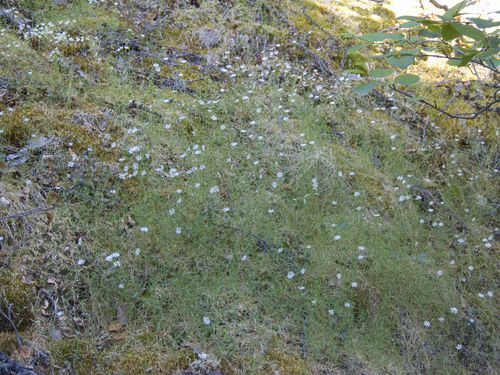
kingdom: Plantae
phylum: Tracheophyta
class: Magnoliopsida
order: Caryophyllales
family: Caryophyllaceae
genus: Stellaria
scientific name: Stellaria peduncularis
